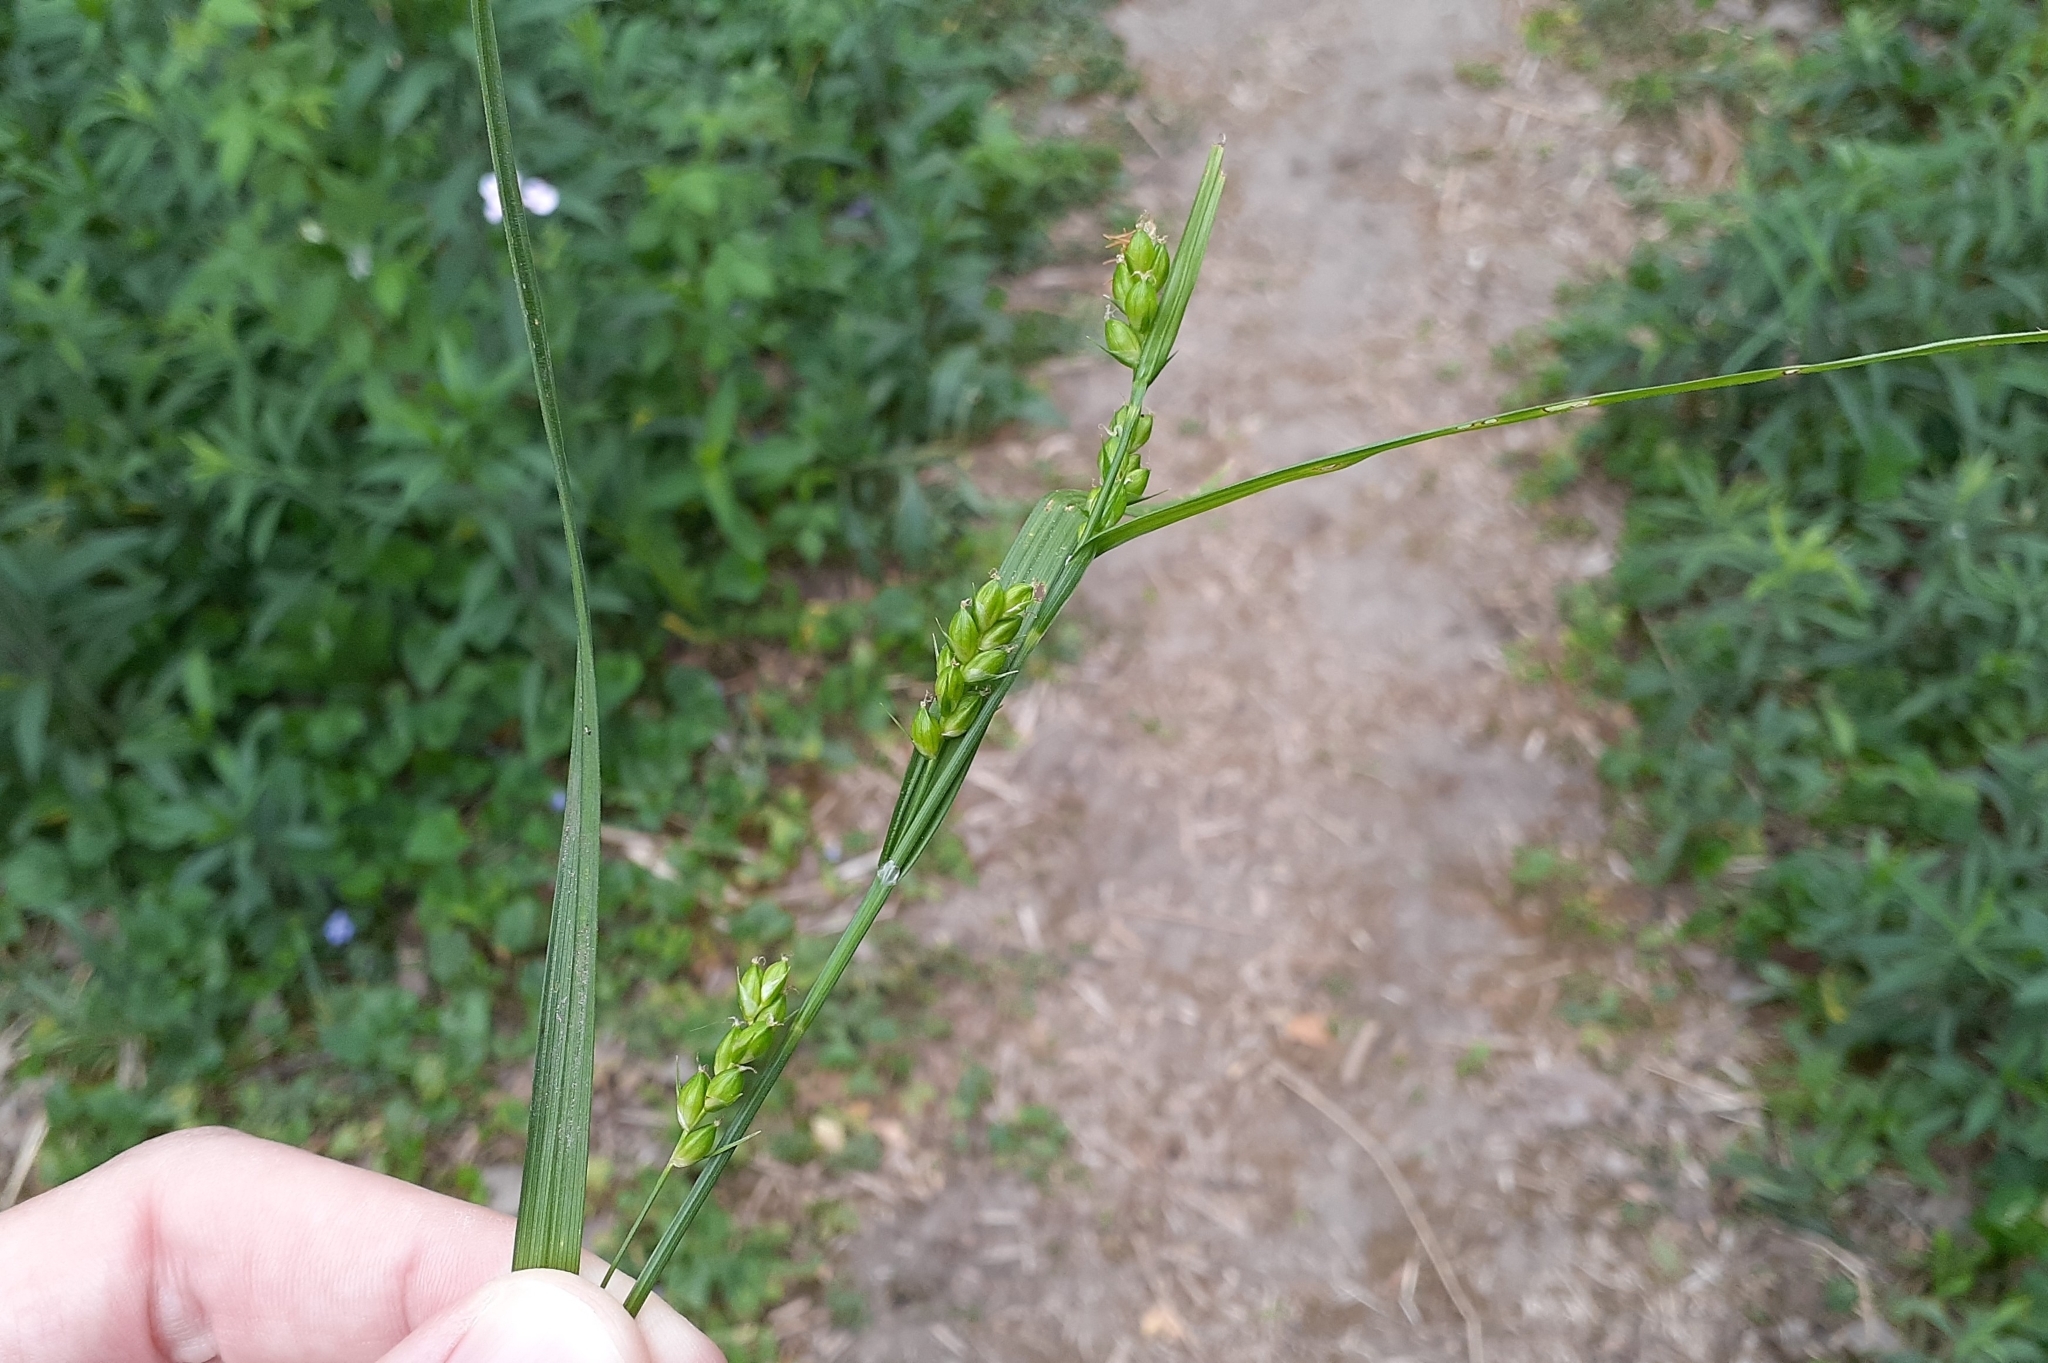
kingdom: Plantae
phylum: Tracheophyta
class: Liliopsida
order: Poales
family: Cyperaceae
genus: Carex
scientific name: Carex grisea
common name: Eastern narrow-leaved sedge
